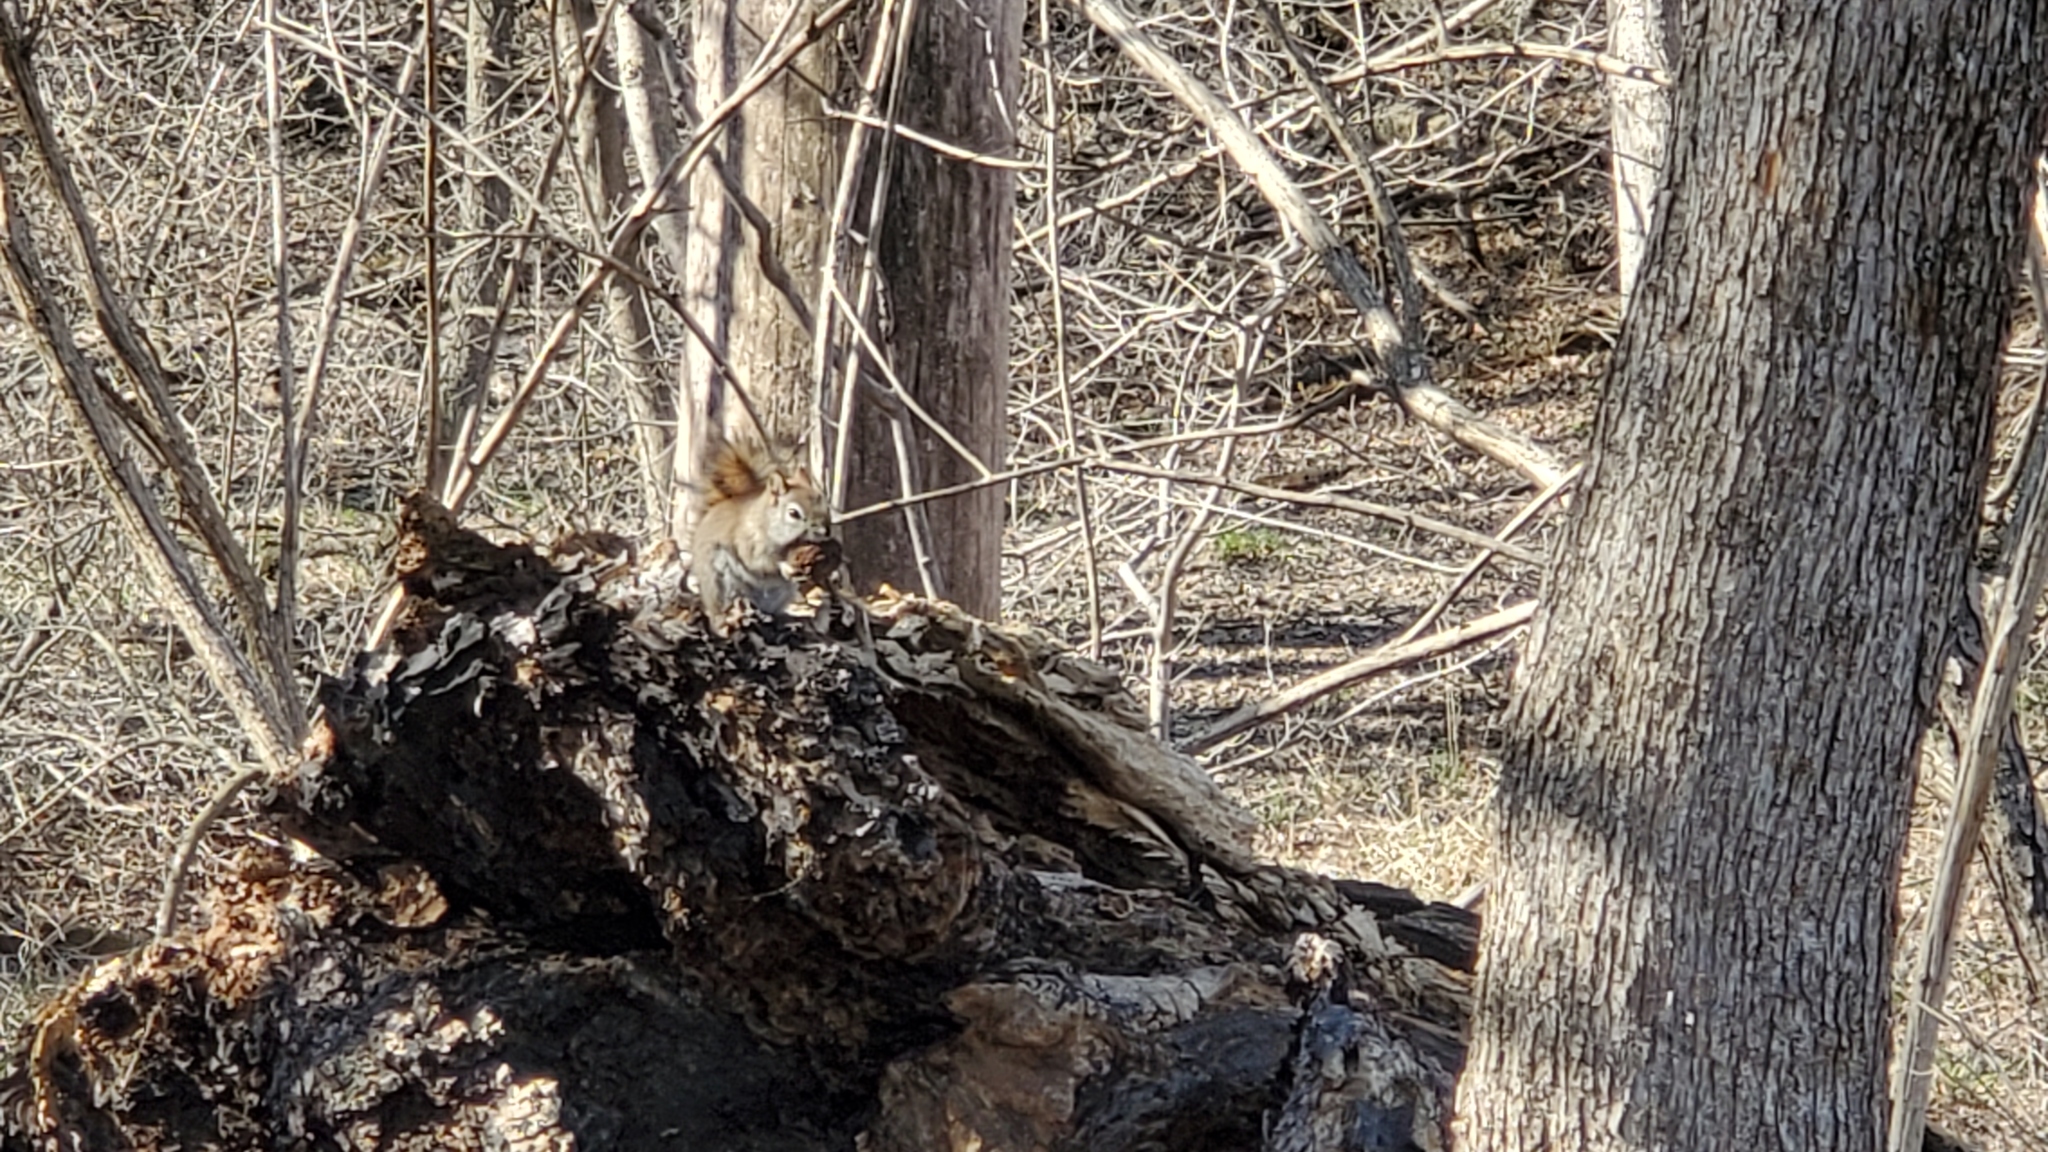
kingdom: Animalia
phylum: Chordata
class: Mammalia
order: Rodentia
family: Sciuridae
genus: Tamiasciurus
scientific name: Tamiasciurus hudsonicus
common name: Red squirrel
